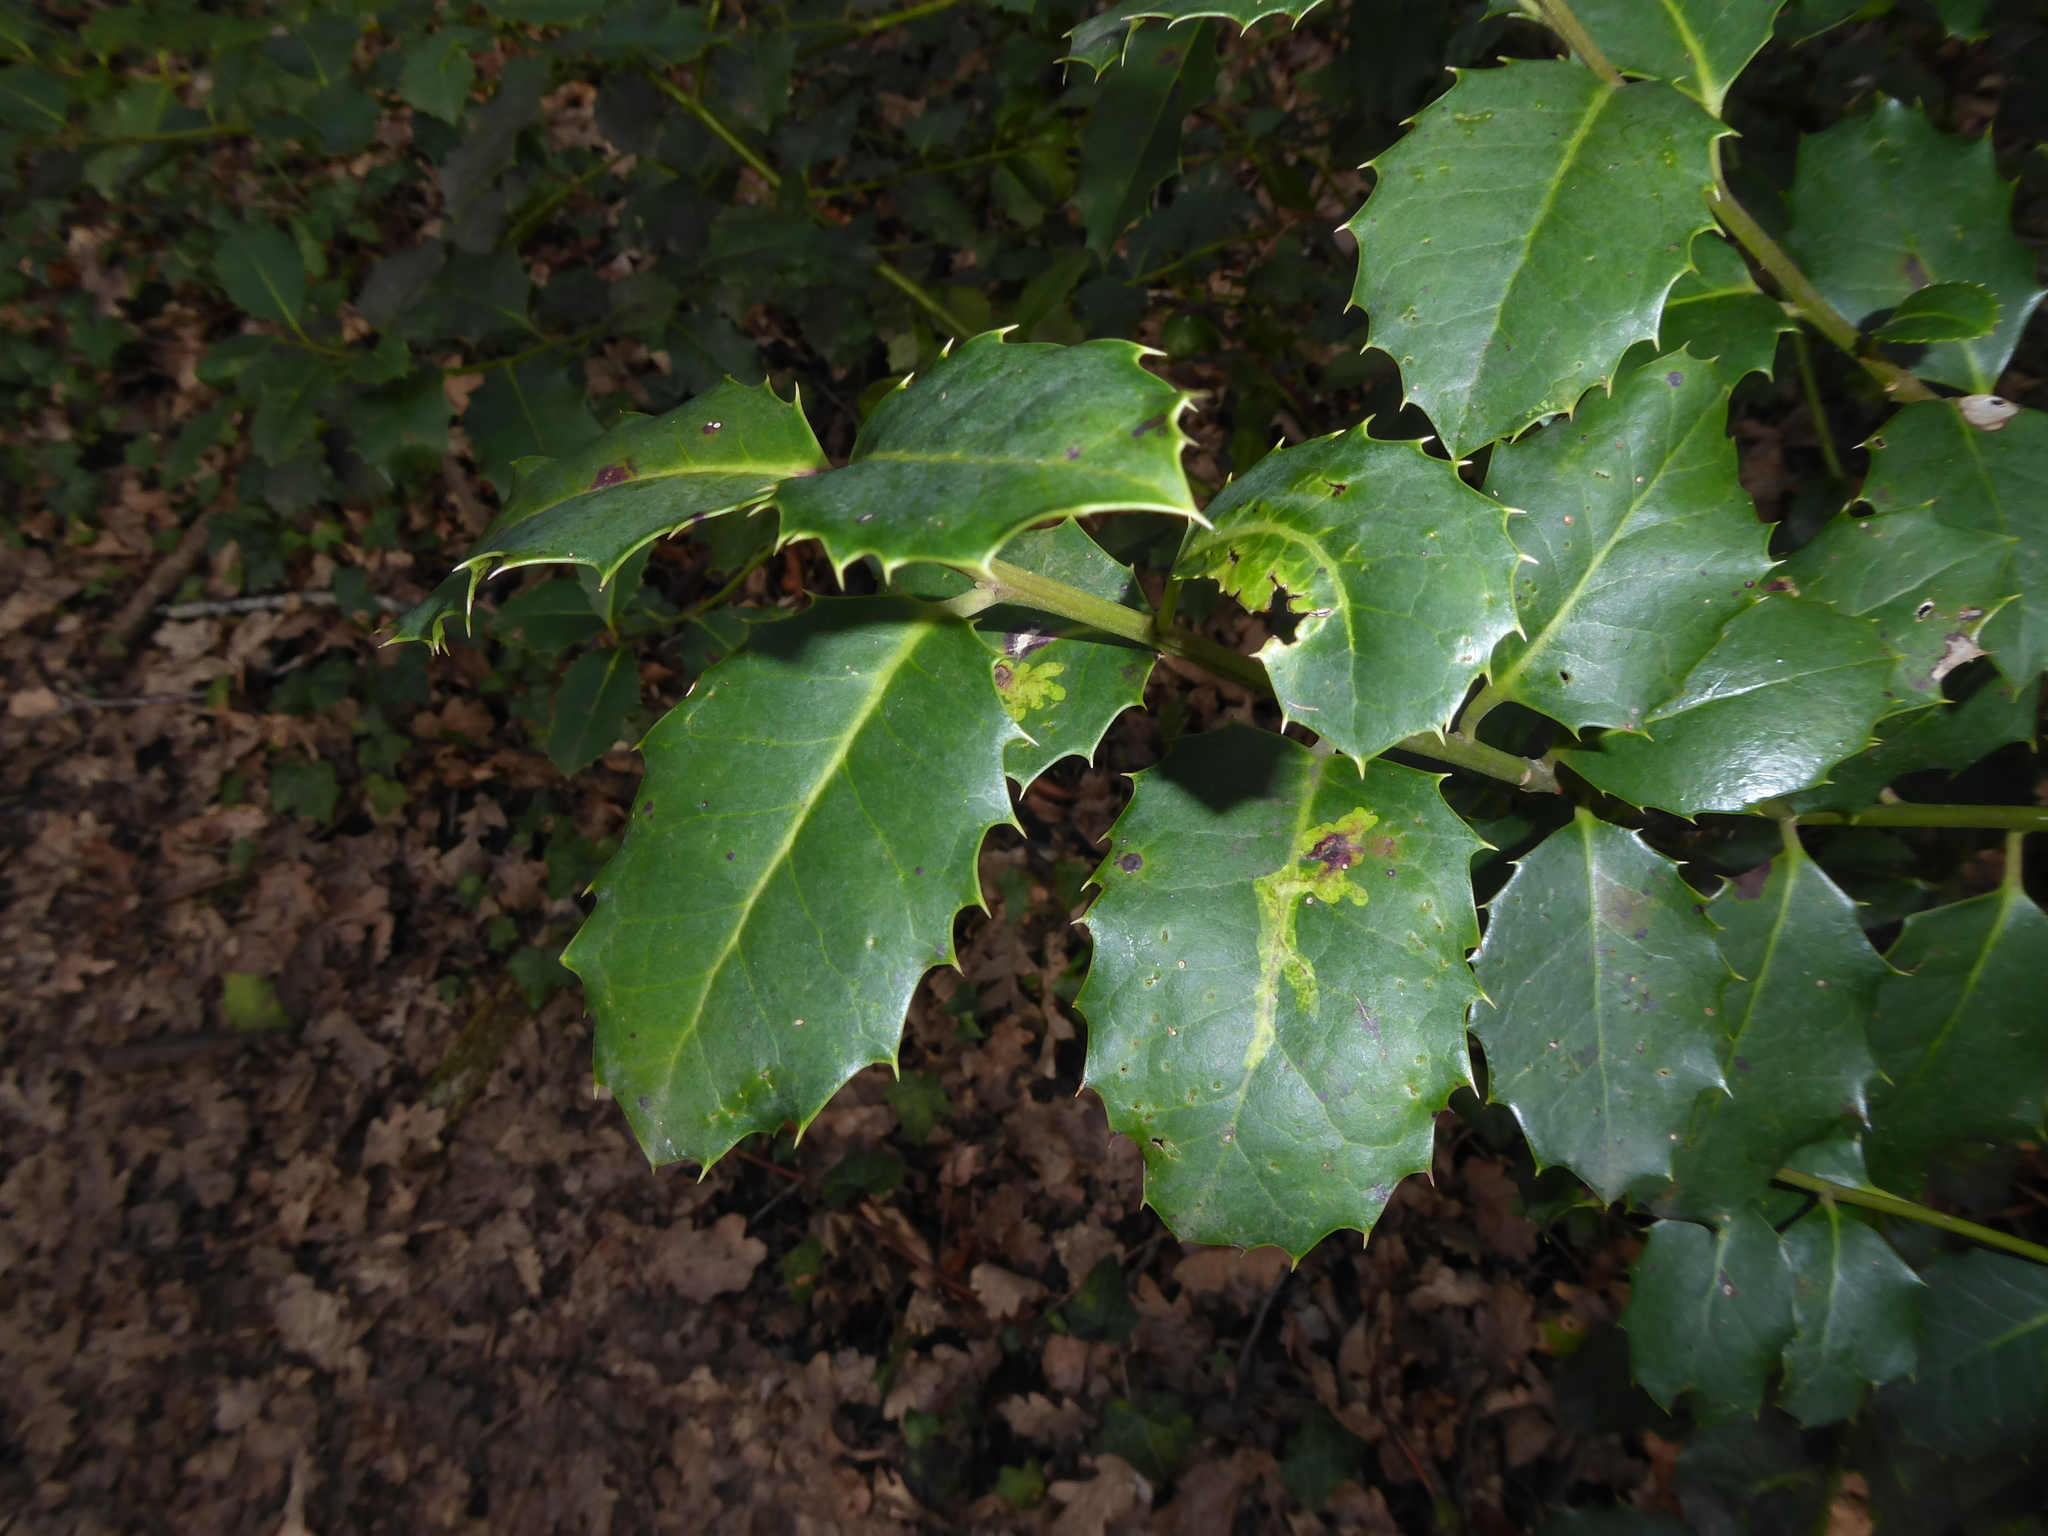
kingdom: Animalia
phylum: Arthropoda
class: Insecta
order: Diptera
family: Agromyzidae
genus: Phytomyza
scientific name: Phytomyza ilicis
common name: Holly leafminer
